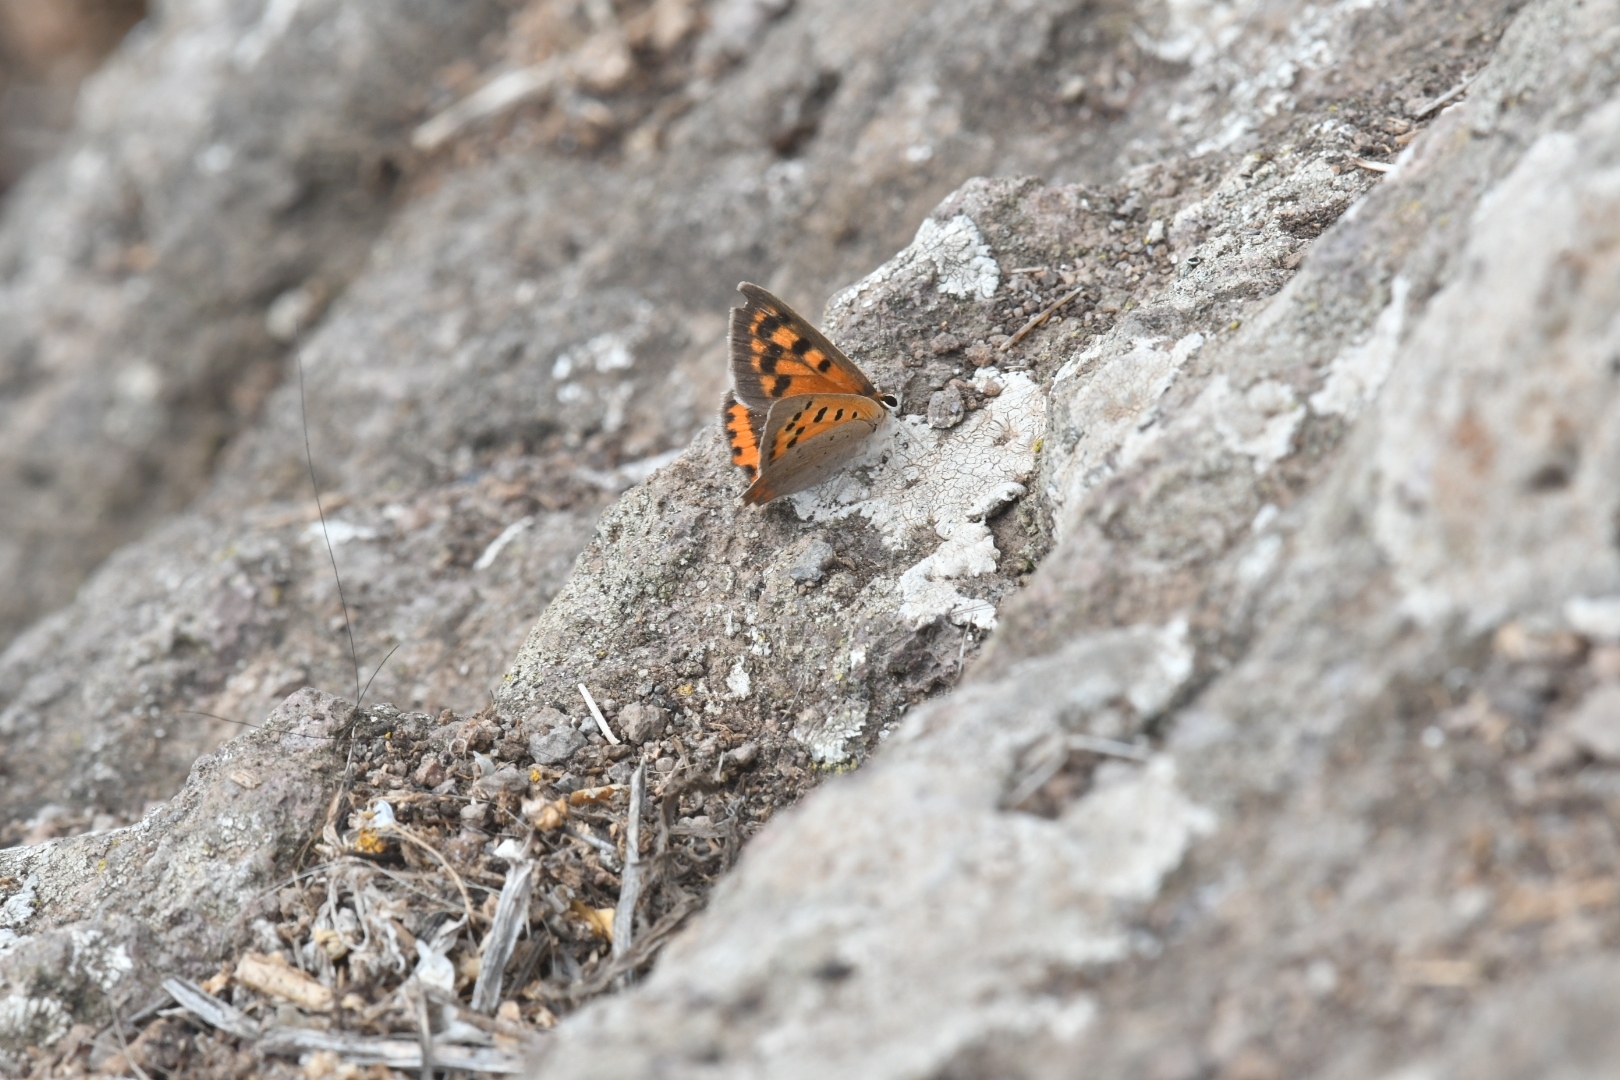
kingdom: Animalia
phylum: Arthropoda
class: Insecta
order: Lepidoptera
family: Lycaenidae
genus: Lycaena
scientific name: Lycaena phlaeas
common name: Small copper
